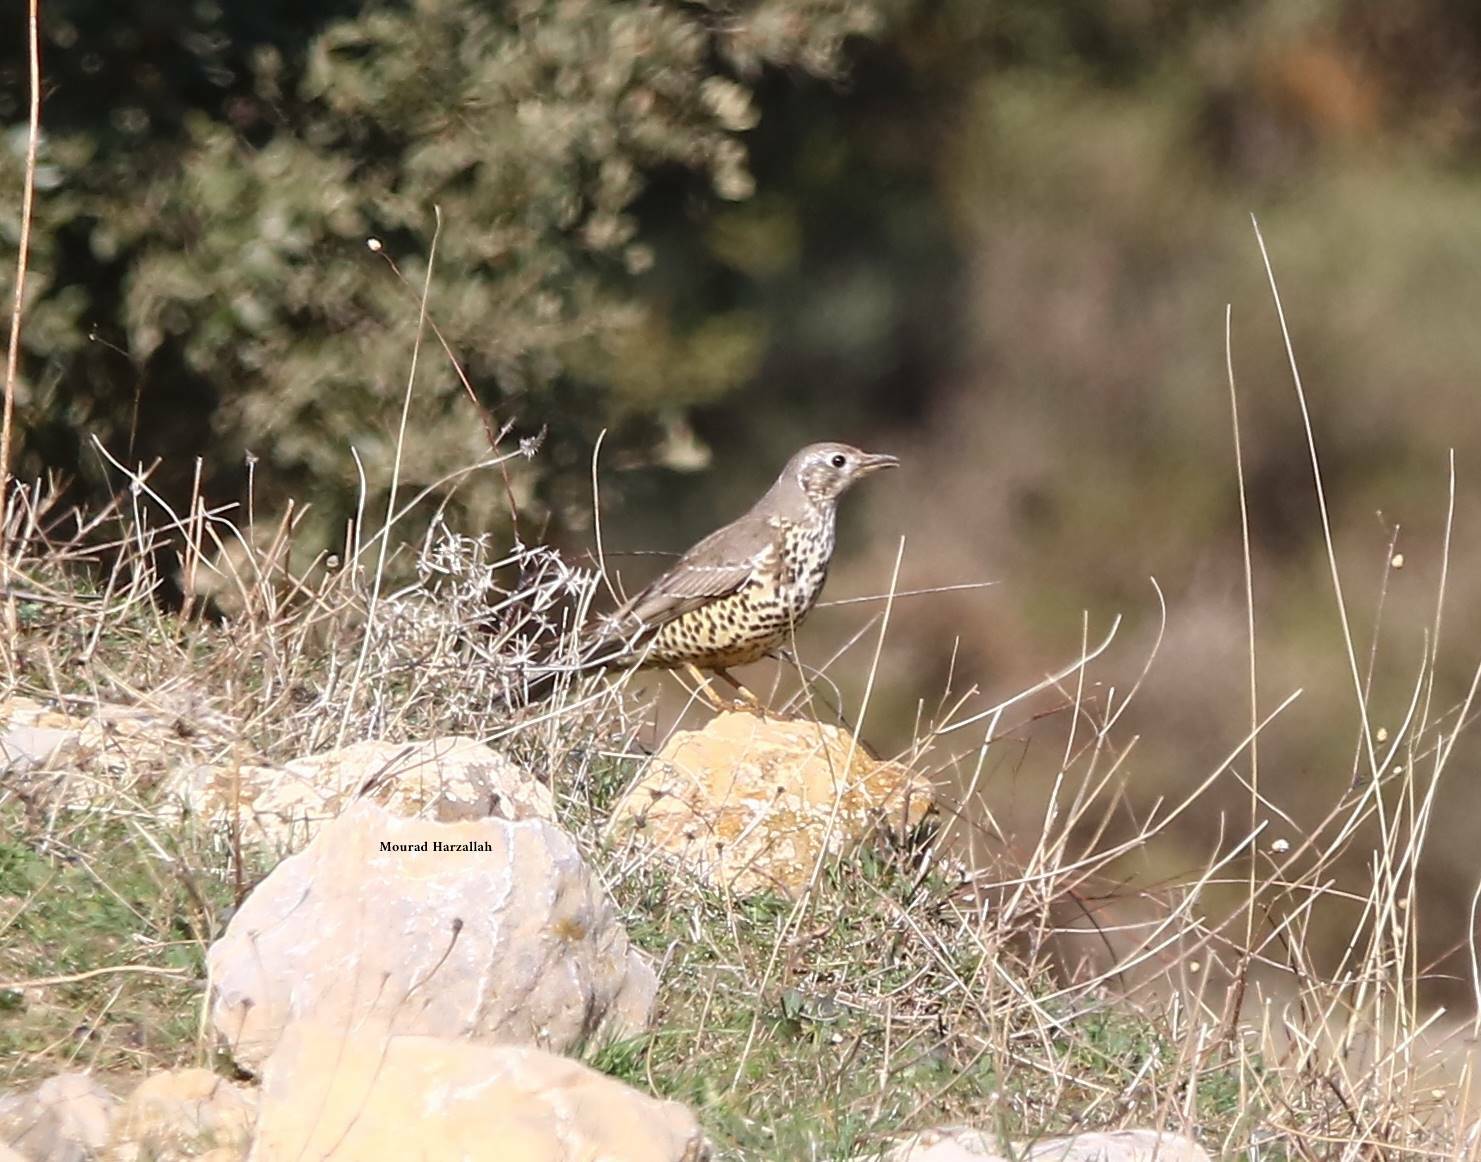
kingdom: Animalia
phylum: Chordata
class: Aves
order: Passeriformes
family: Turdidae
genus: Turdus
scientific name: Turdus viscivorus
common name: Mistle thrush
